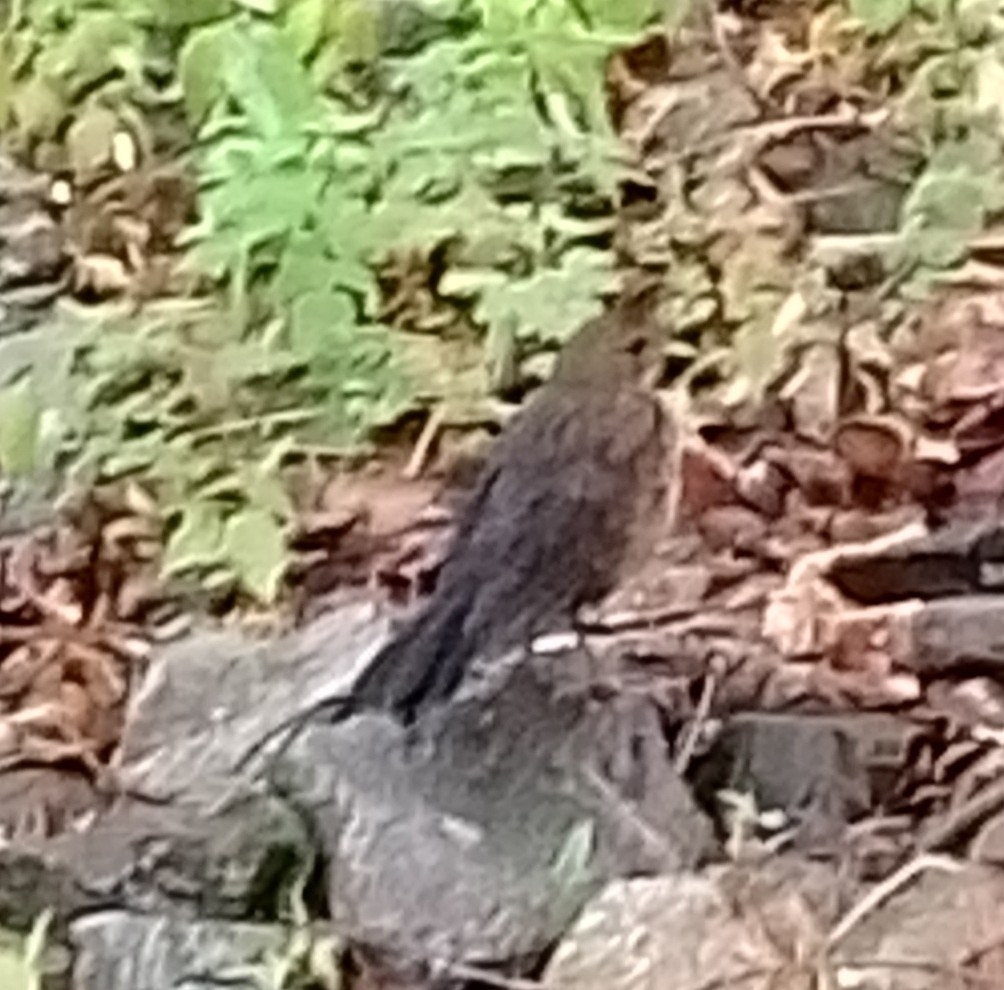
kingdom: Animalia
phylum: Chordata
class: Aves
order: Passeriformes
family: Turdidae
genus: Turdus
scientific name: Turdus merula
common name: Common blackbird
